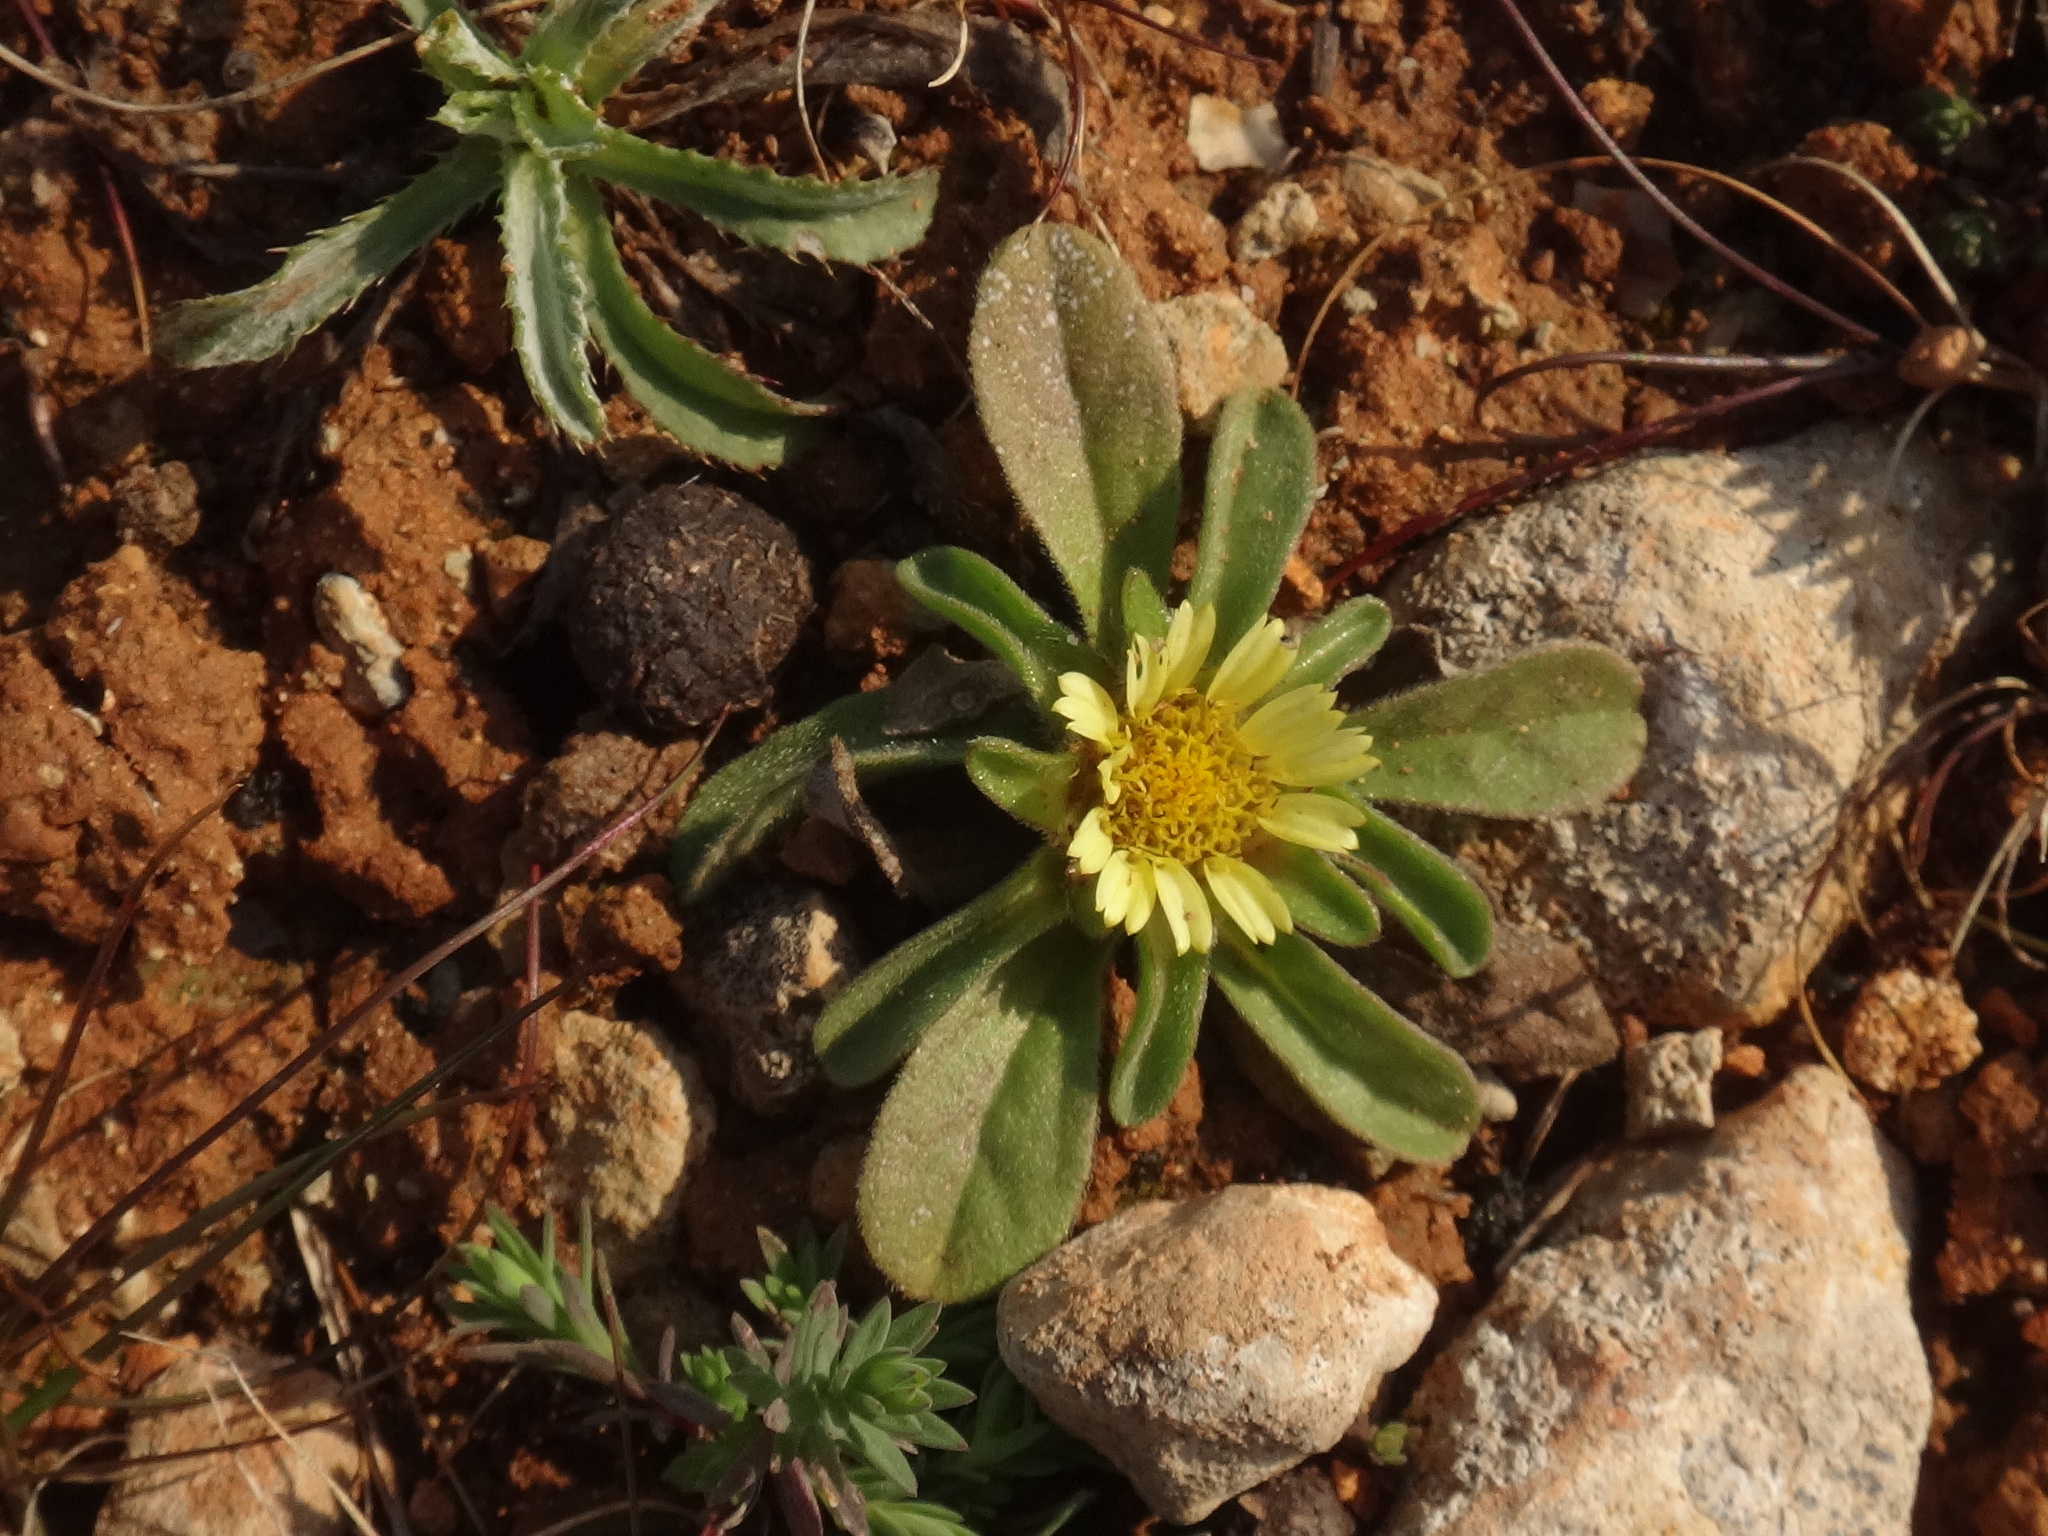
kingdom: Plantae
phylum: Tracheophyta
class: Magnoliopsida
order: Asterales
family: Asteraceae
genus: Asteriscus
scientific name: Asteriscus aquaticus
